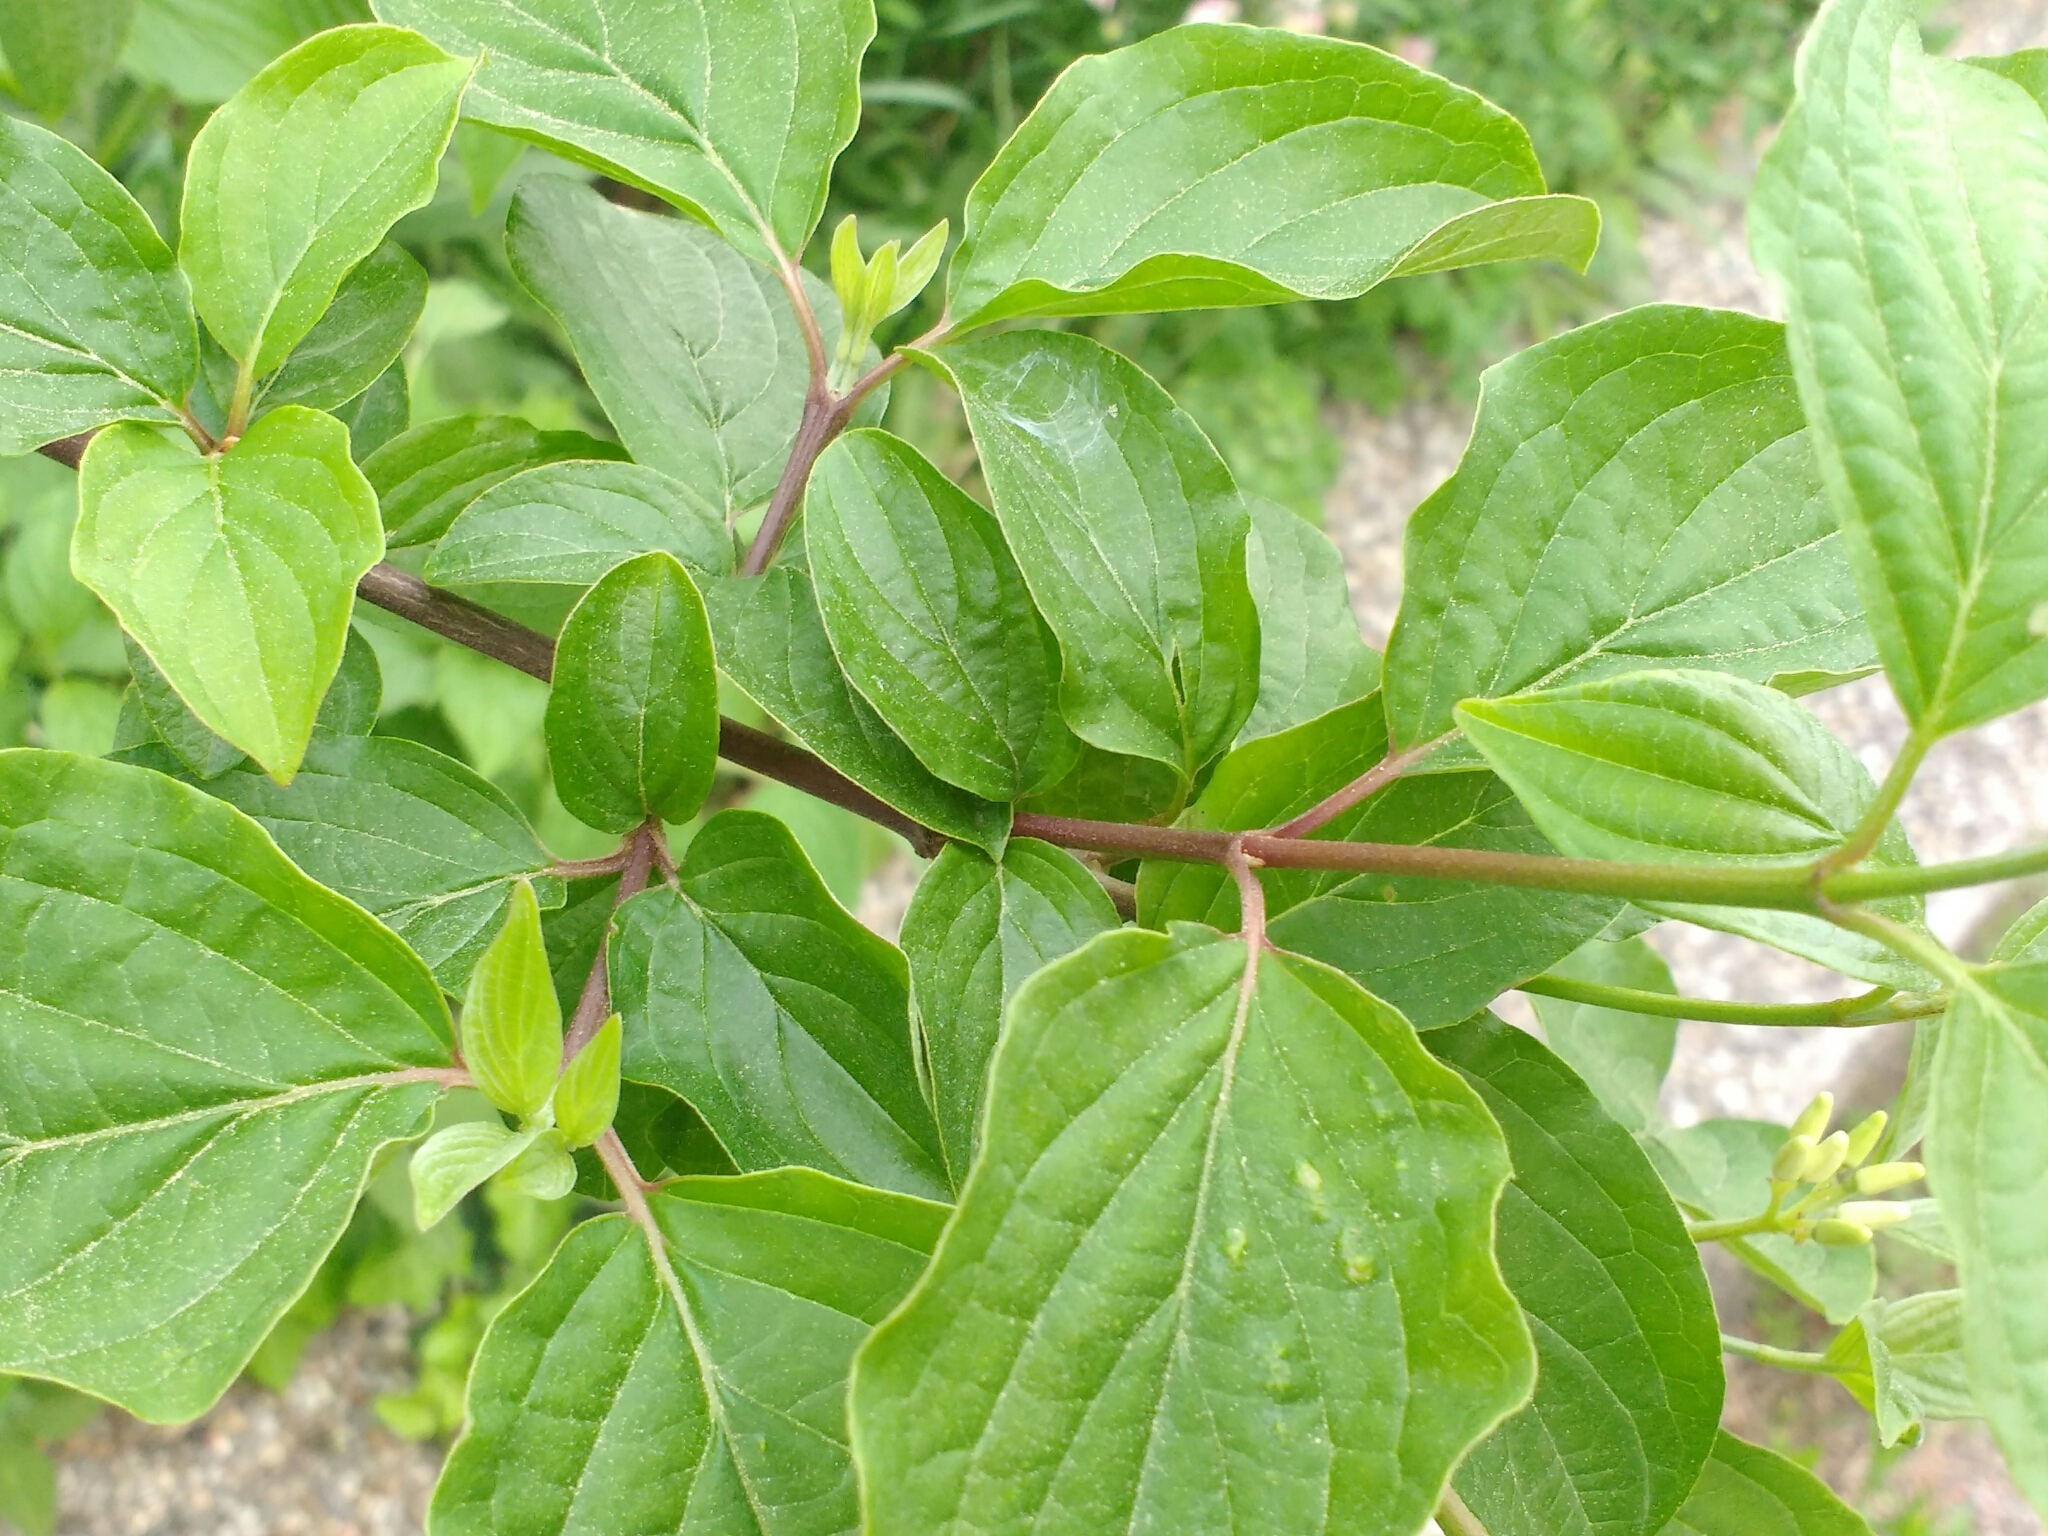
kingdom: Plantae
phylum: Tracheophyta
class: Magnoliopsida
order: Cornales
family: Cornaceae
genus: Cornus
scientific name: Cornus sanguinea
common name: Dogwood
